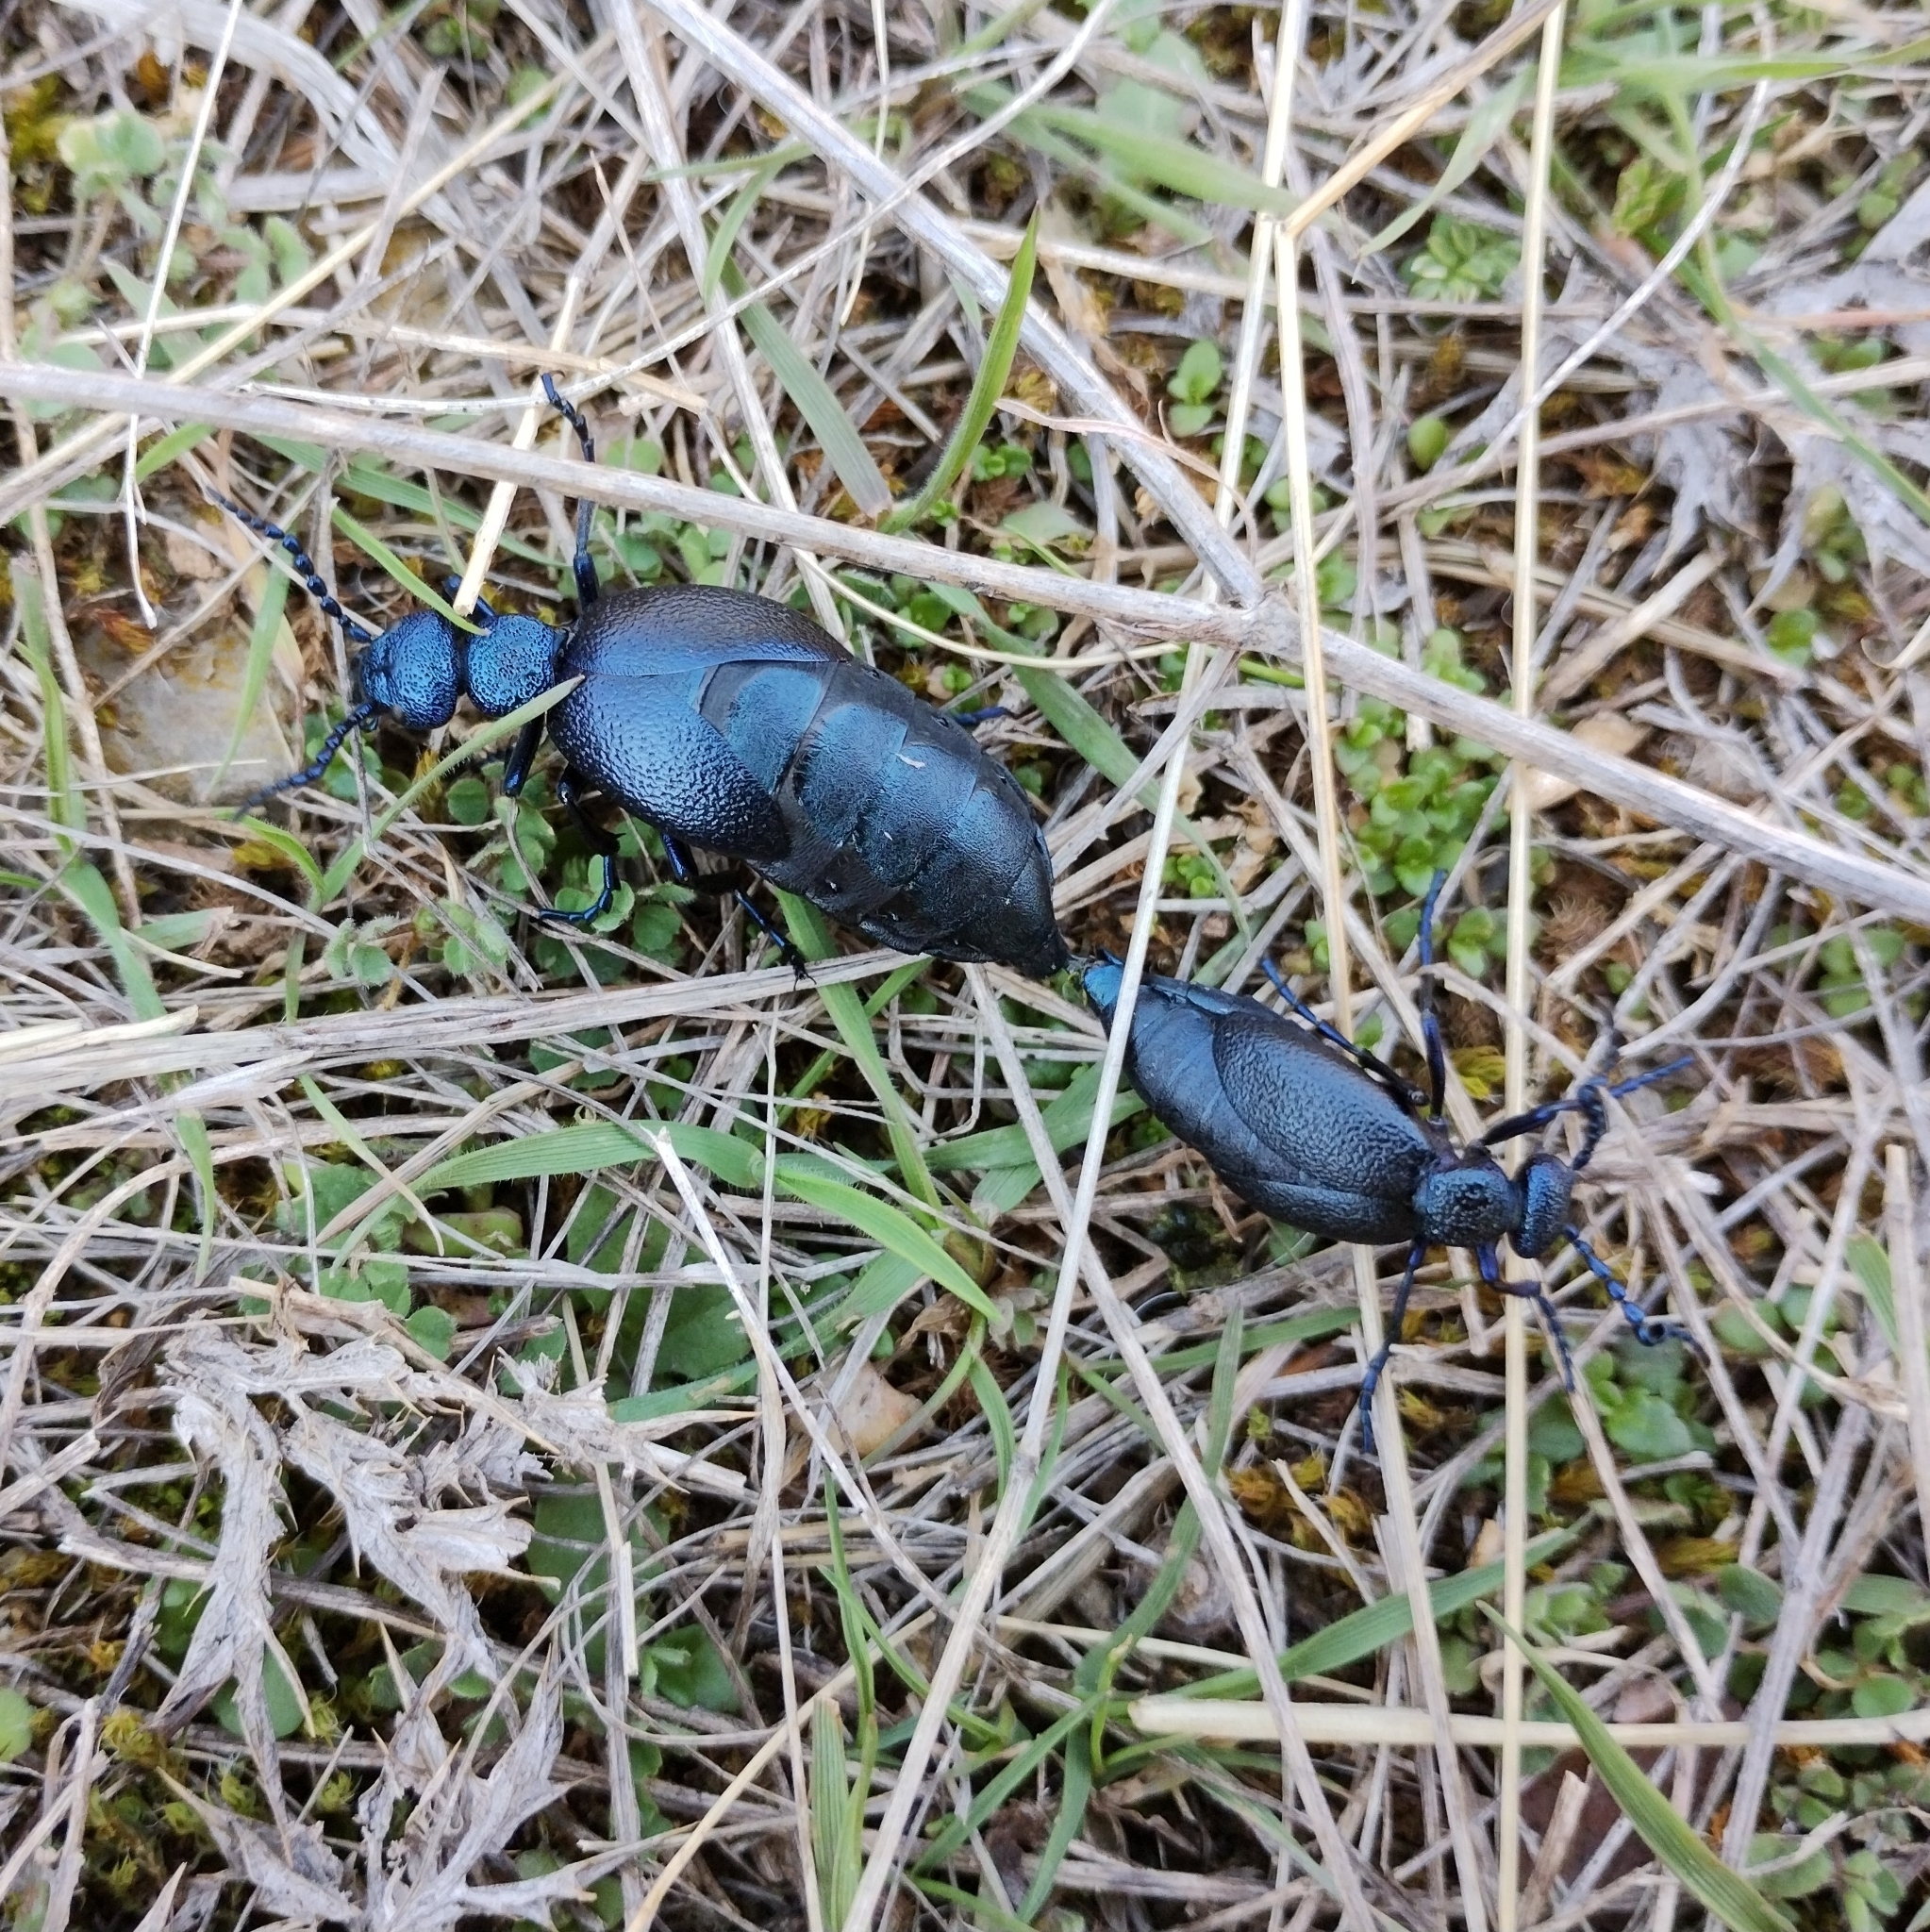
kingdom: Animalia
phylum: Arthropoda
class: Insecta
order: Coleoptera
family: Meloidae
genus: Meloe
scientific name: Meloe proscarabaeus
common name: Black oil-beetle
